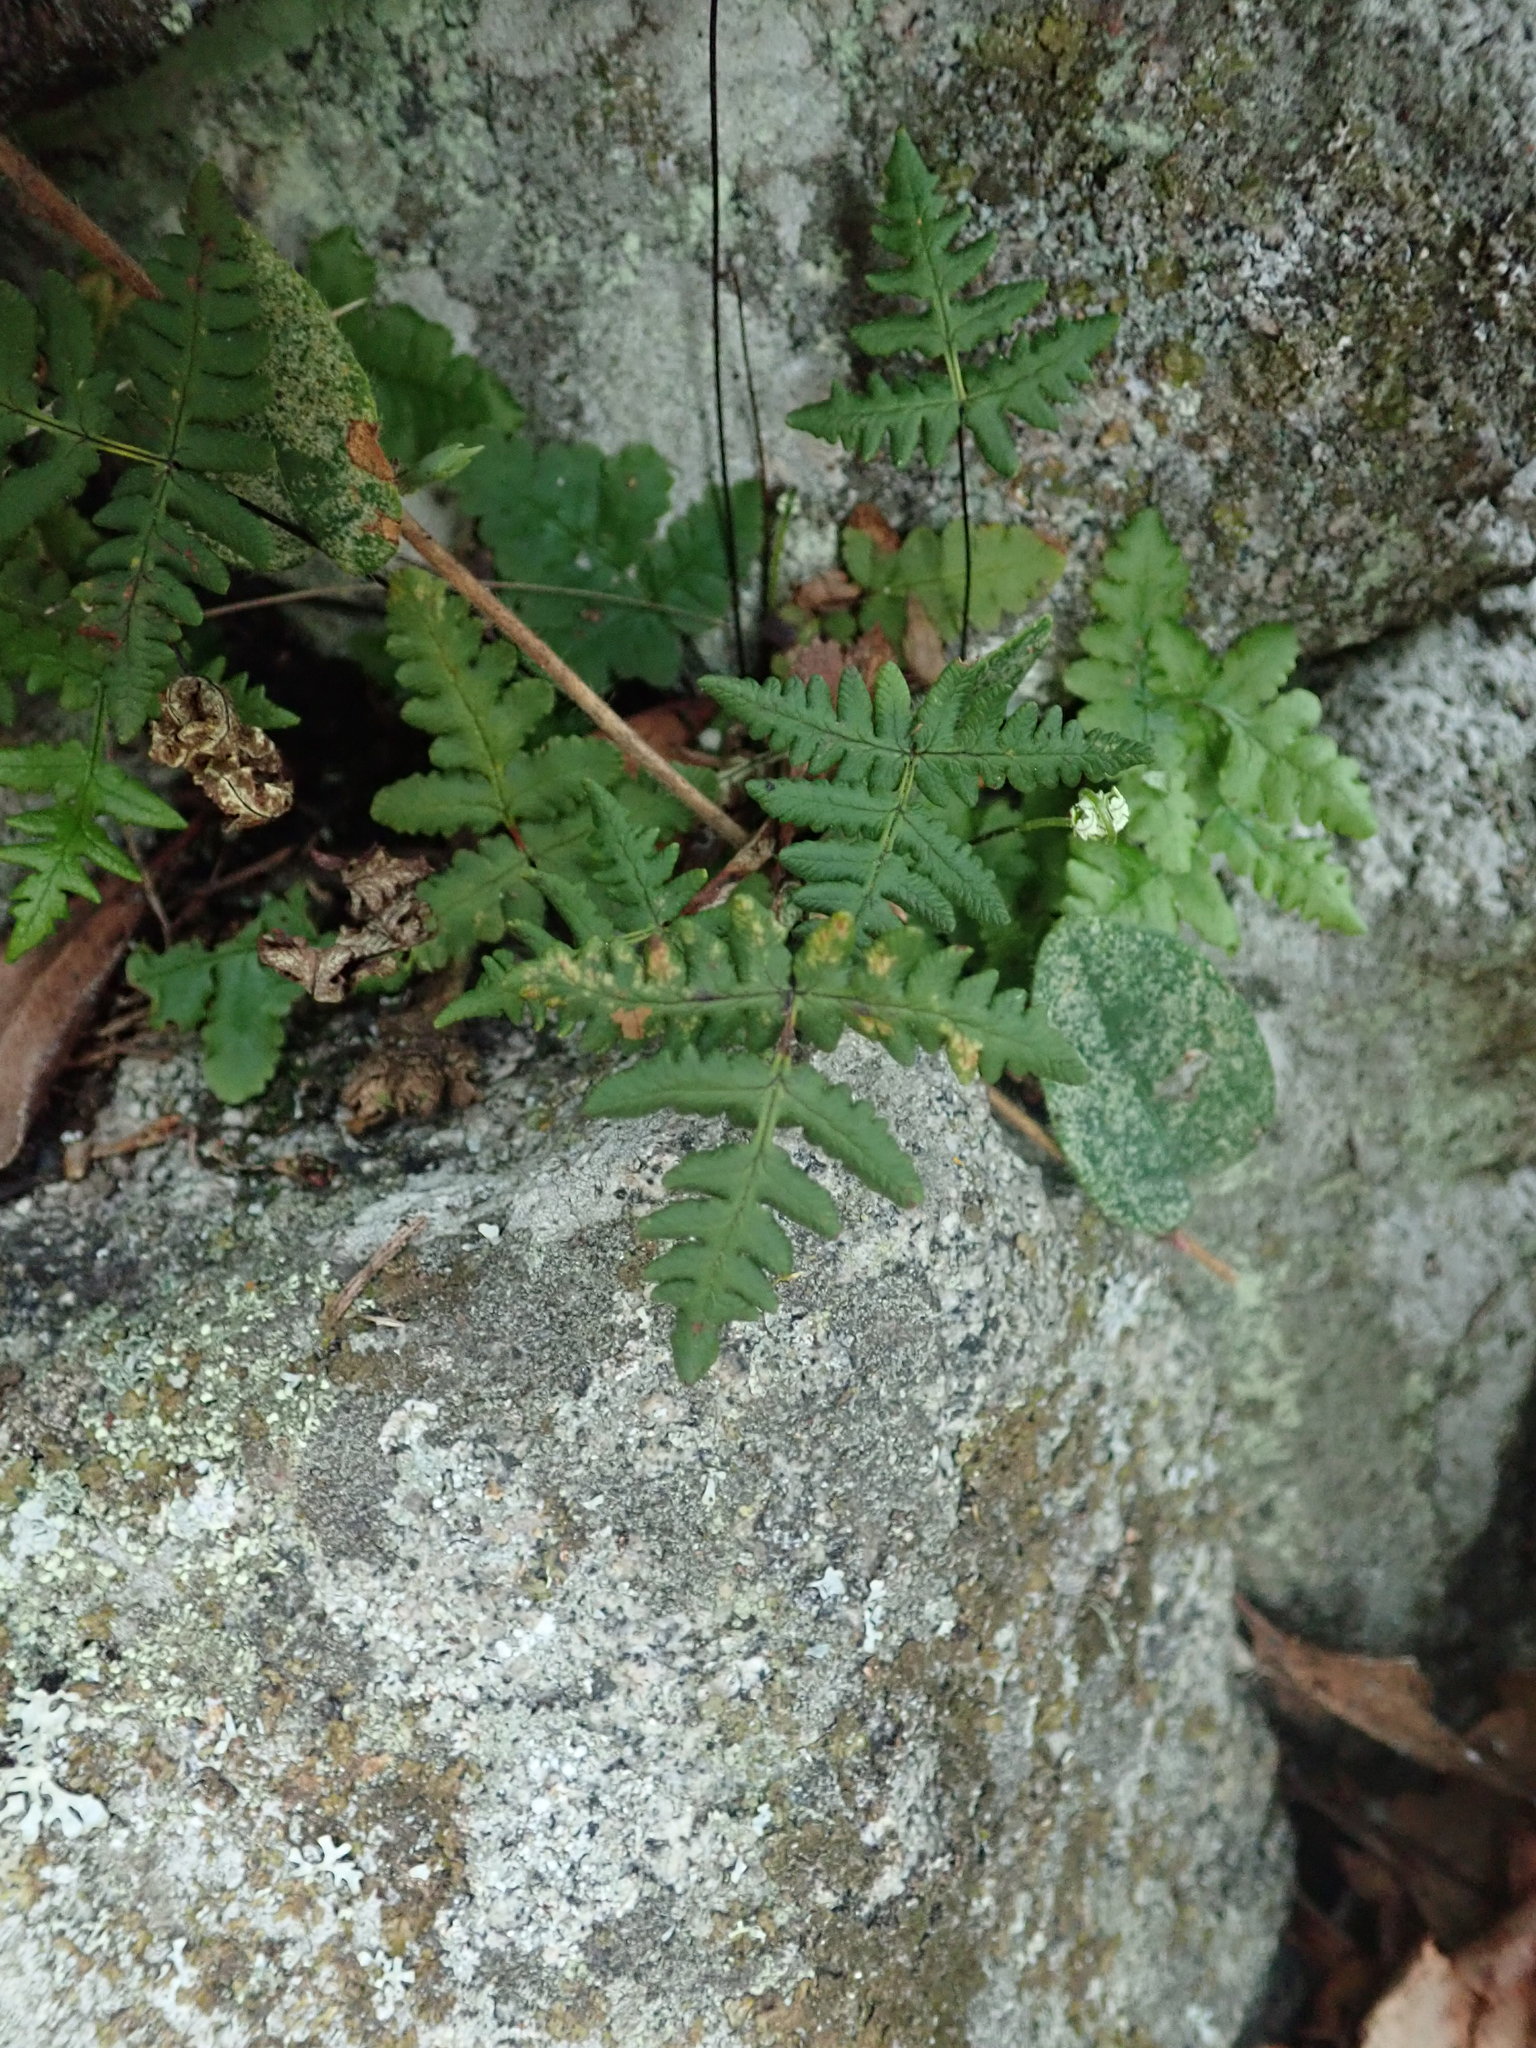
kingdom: Plantae
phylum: Tracheophyta
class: Polypodiopsida
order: Polypodiales
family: Pteridaceae
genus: Pentagramma
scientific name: Pentagramma triangularis
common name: Gold fern
